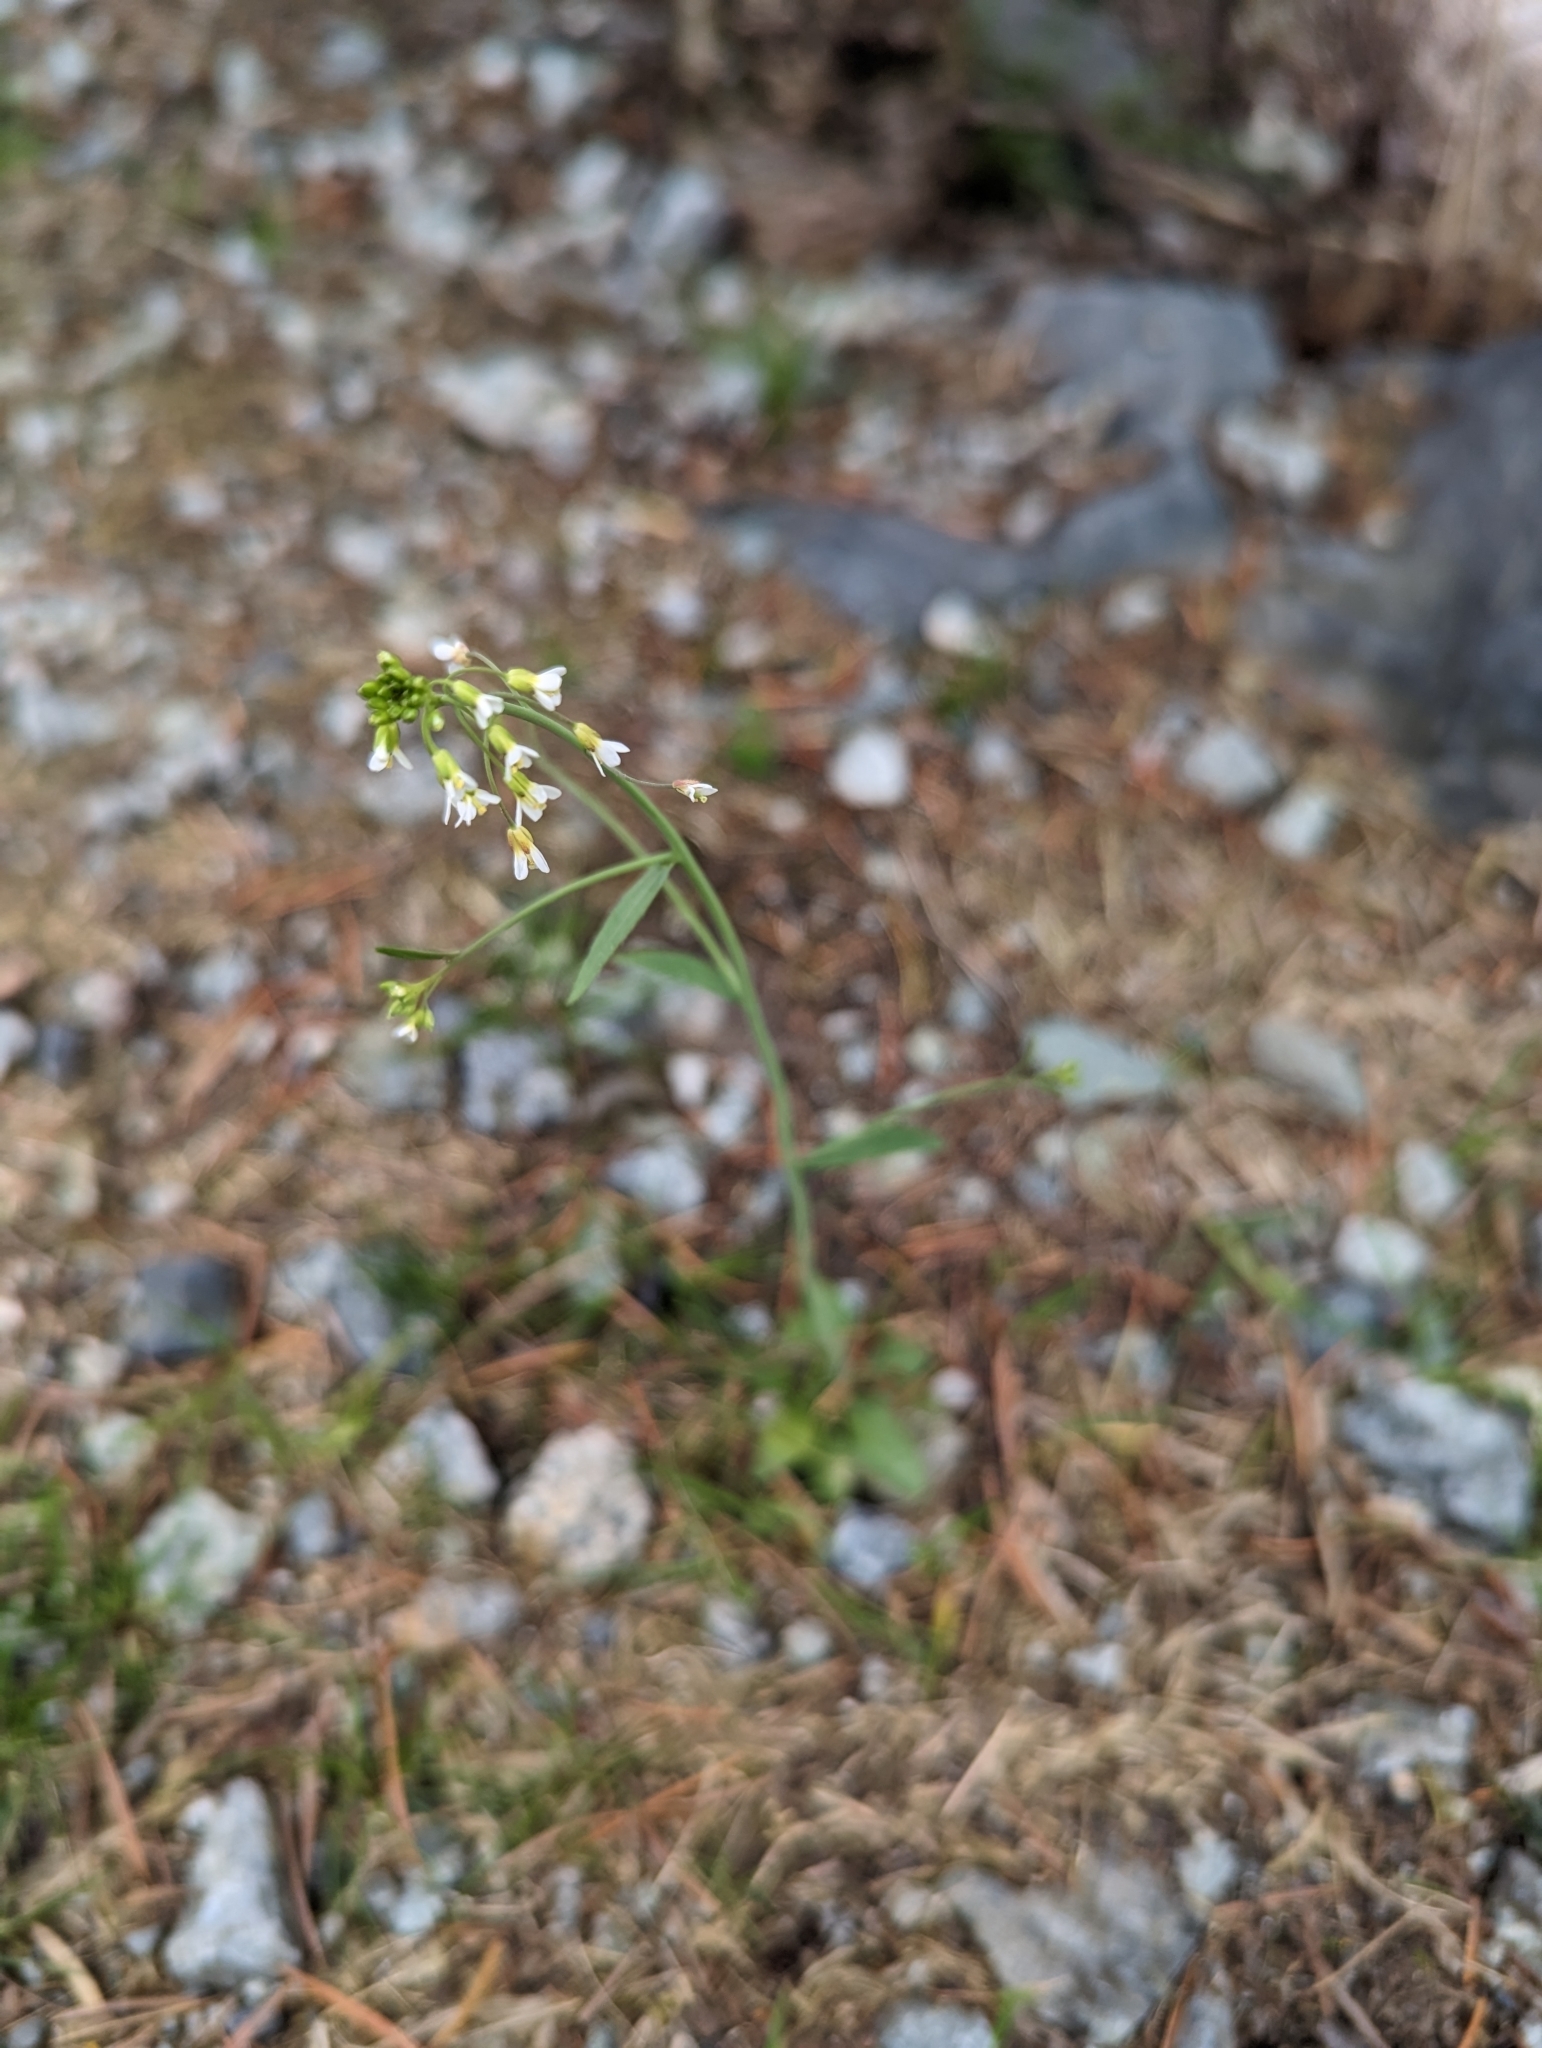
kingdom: Plantae
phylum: Tracheophyta
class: Magnoliopsida
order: Brassicales
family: Brassicaceae
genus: Arabidopsis
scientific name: Arabidopsis thaliana
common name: Thale cress
